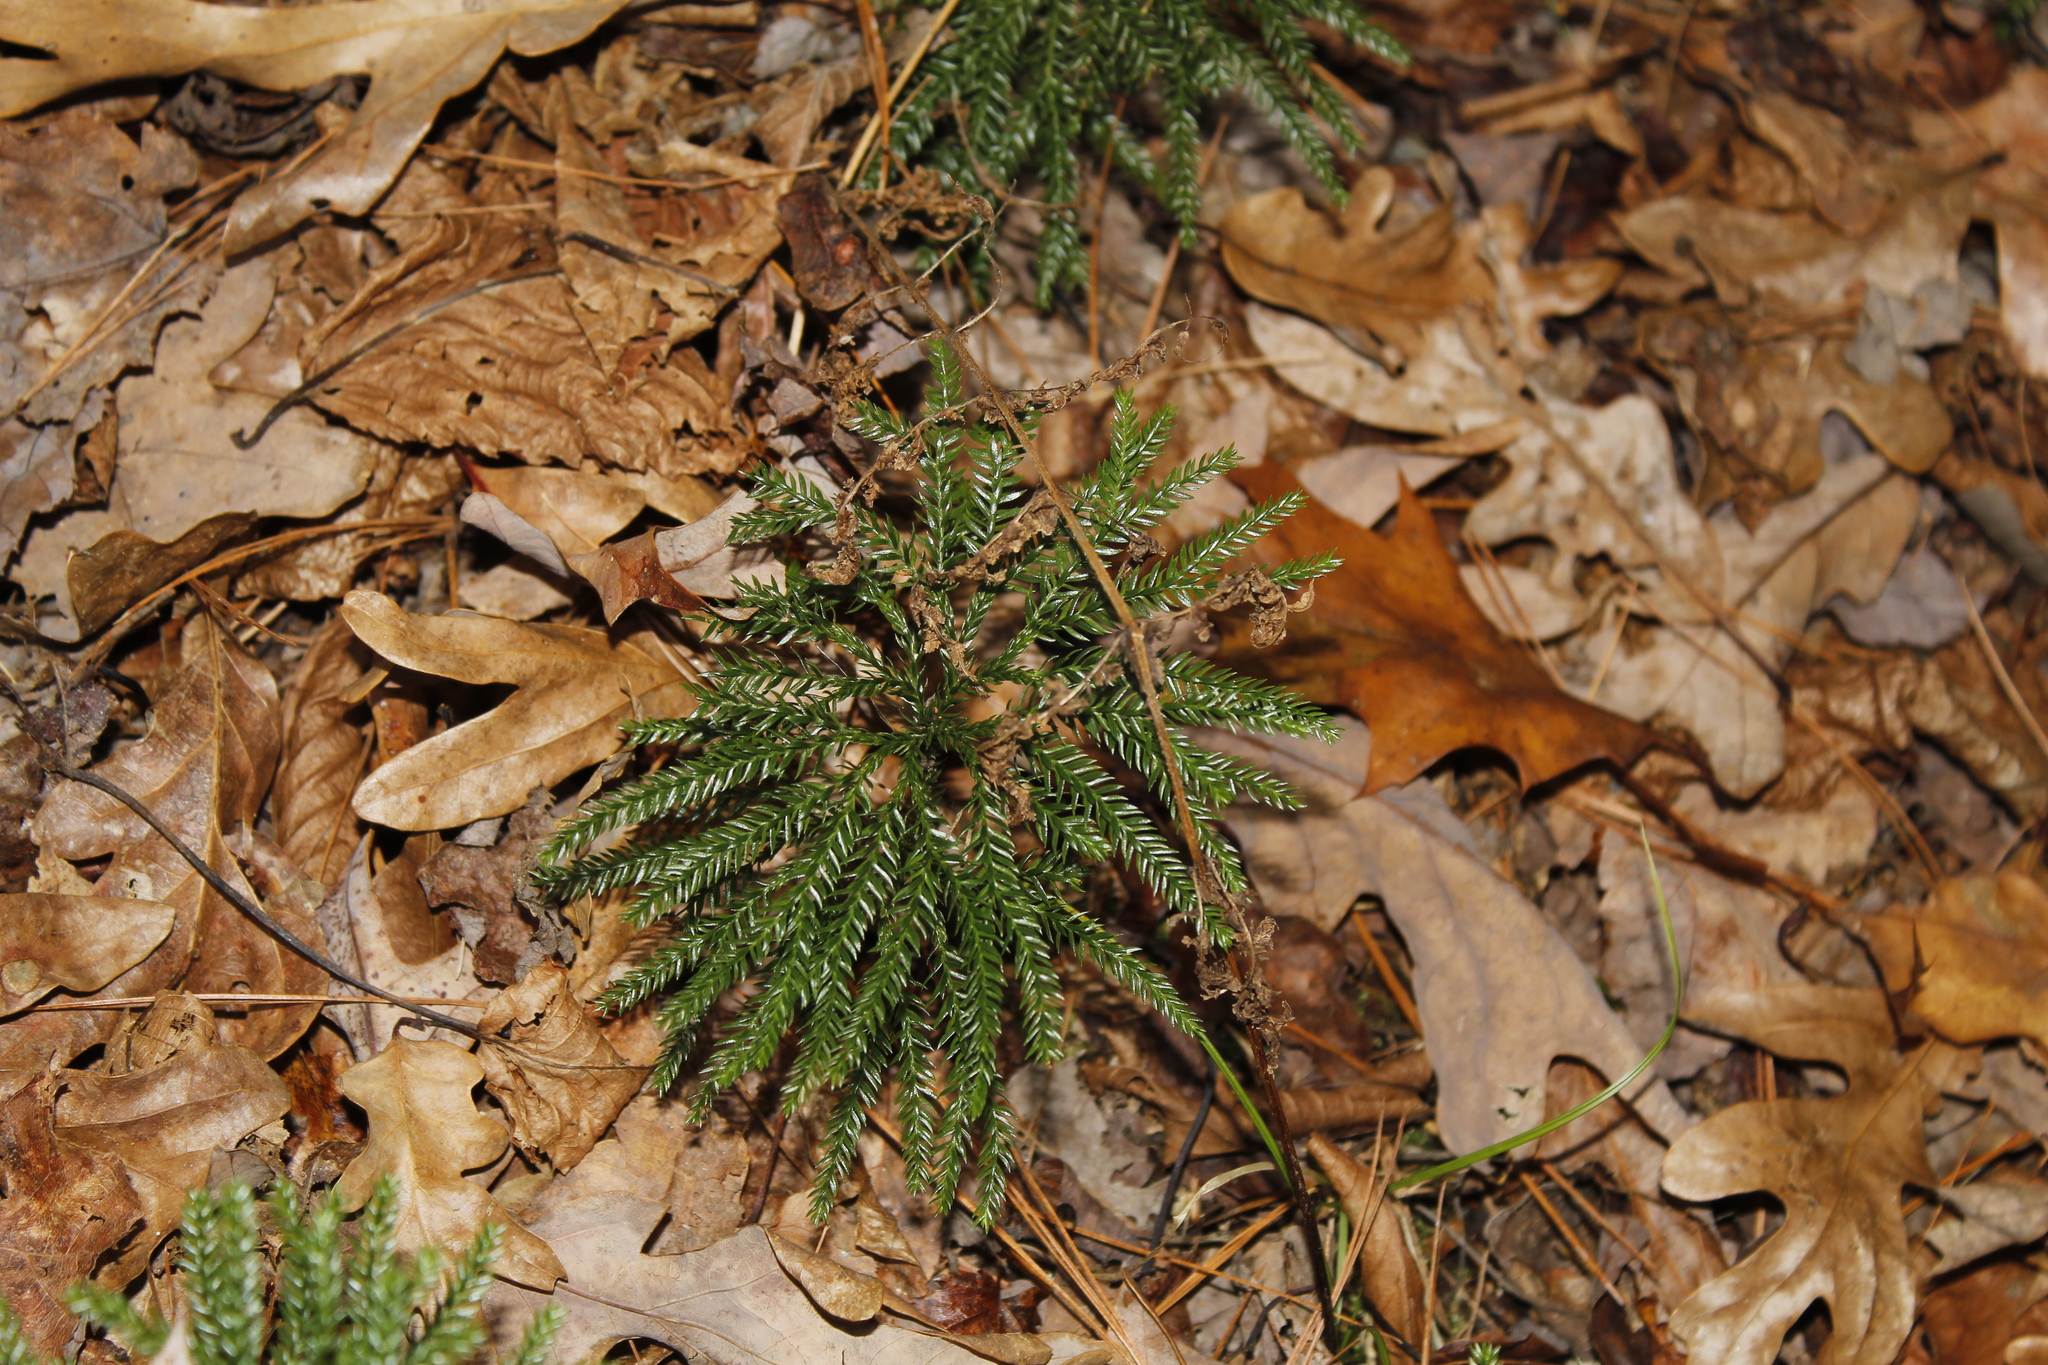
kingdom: Plantae
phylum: Tracheophyta
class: Lycopodiopsida
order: Lycopodiales
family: Lycopodiaceae
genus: Dendrolycopodium
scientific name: Dendrolycopodium obscurum
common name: Common ground-pine
